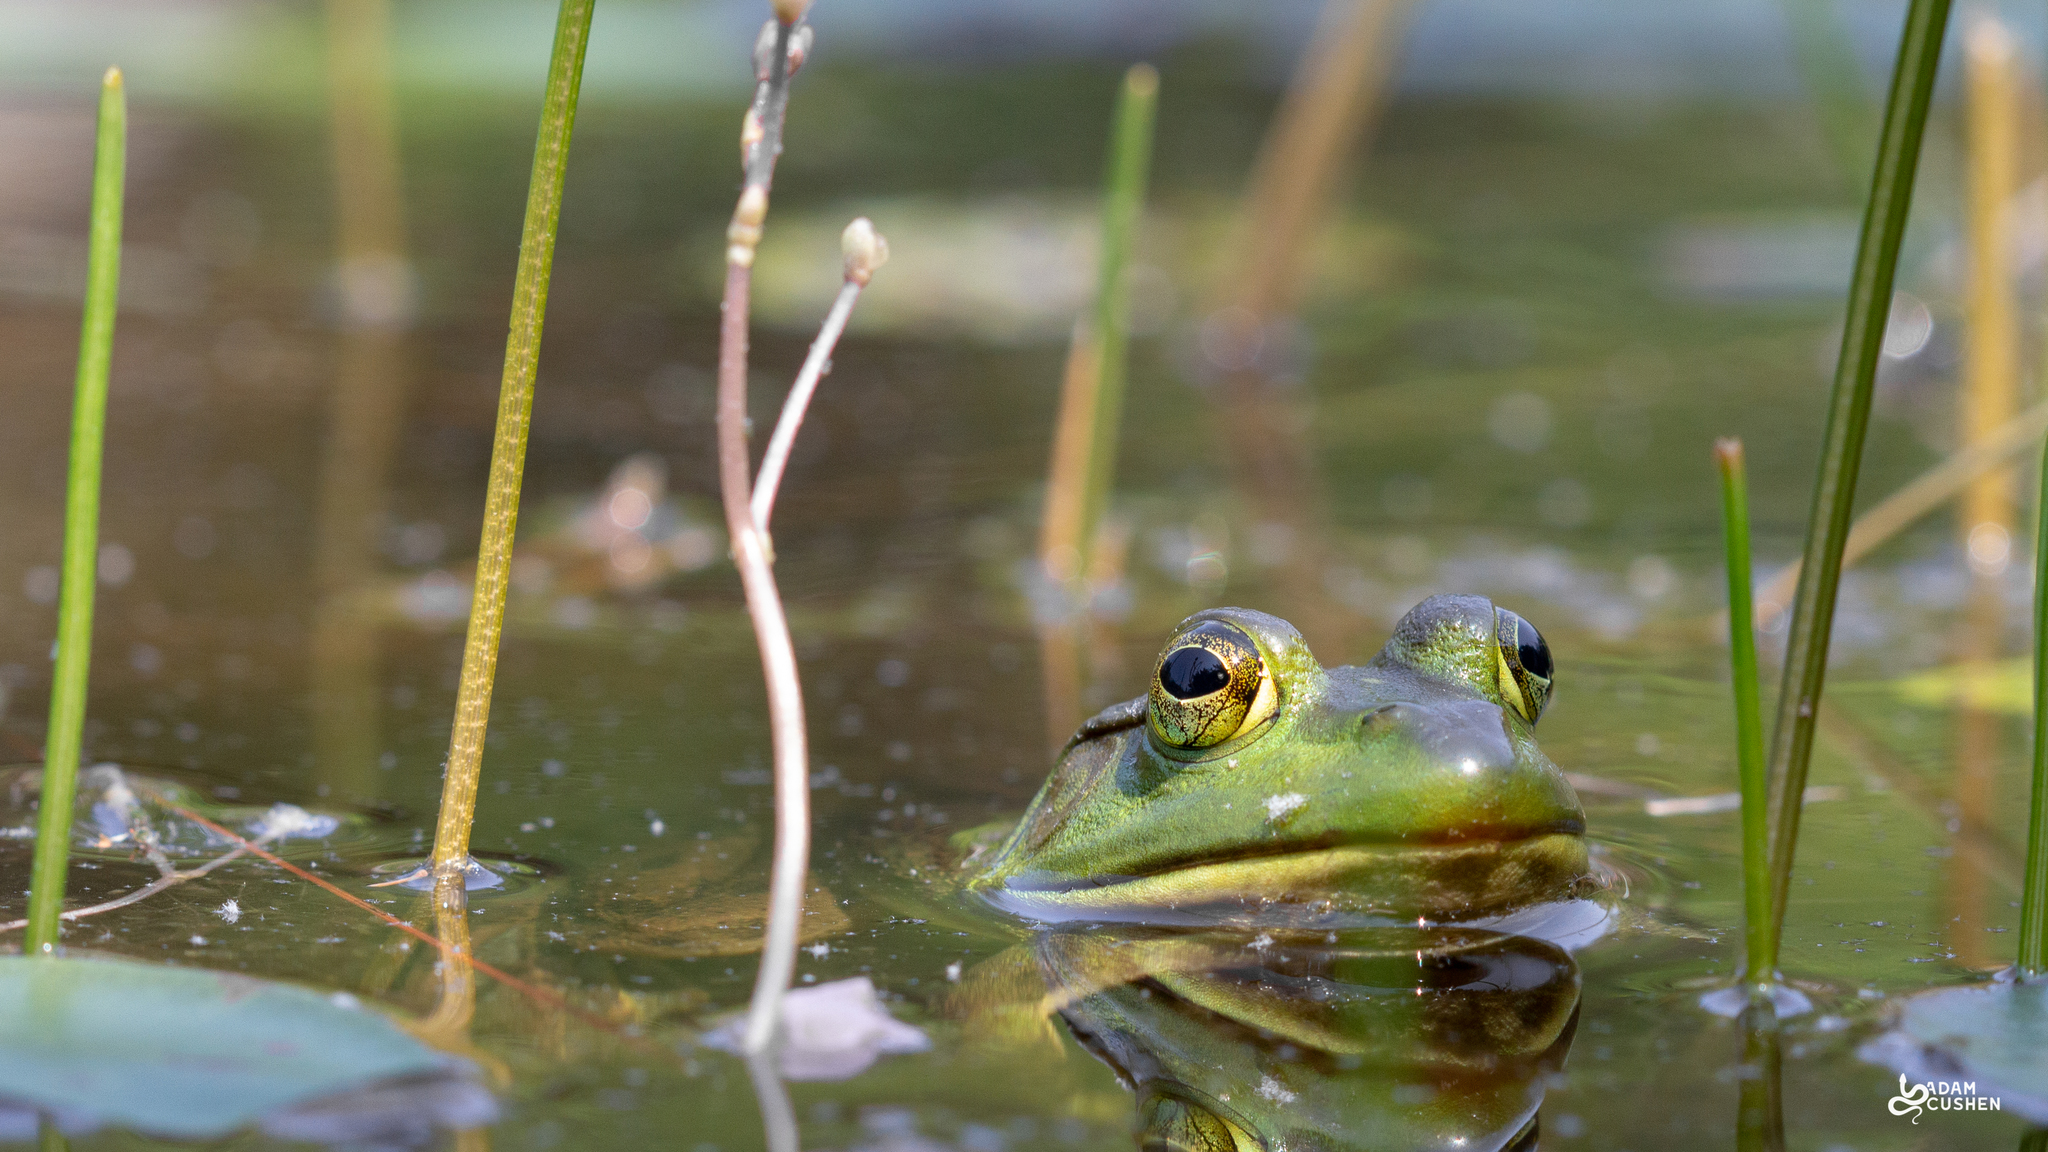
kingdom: Animalia
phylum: Chordata
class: Amphibia
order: Anura
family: Ranidae
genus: Lithobates
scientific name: Lithobates catesbeianus
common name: American bullfrog
